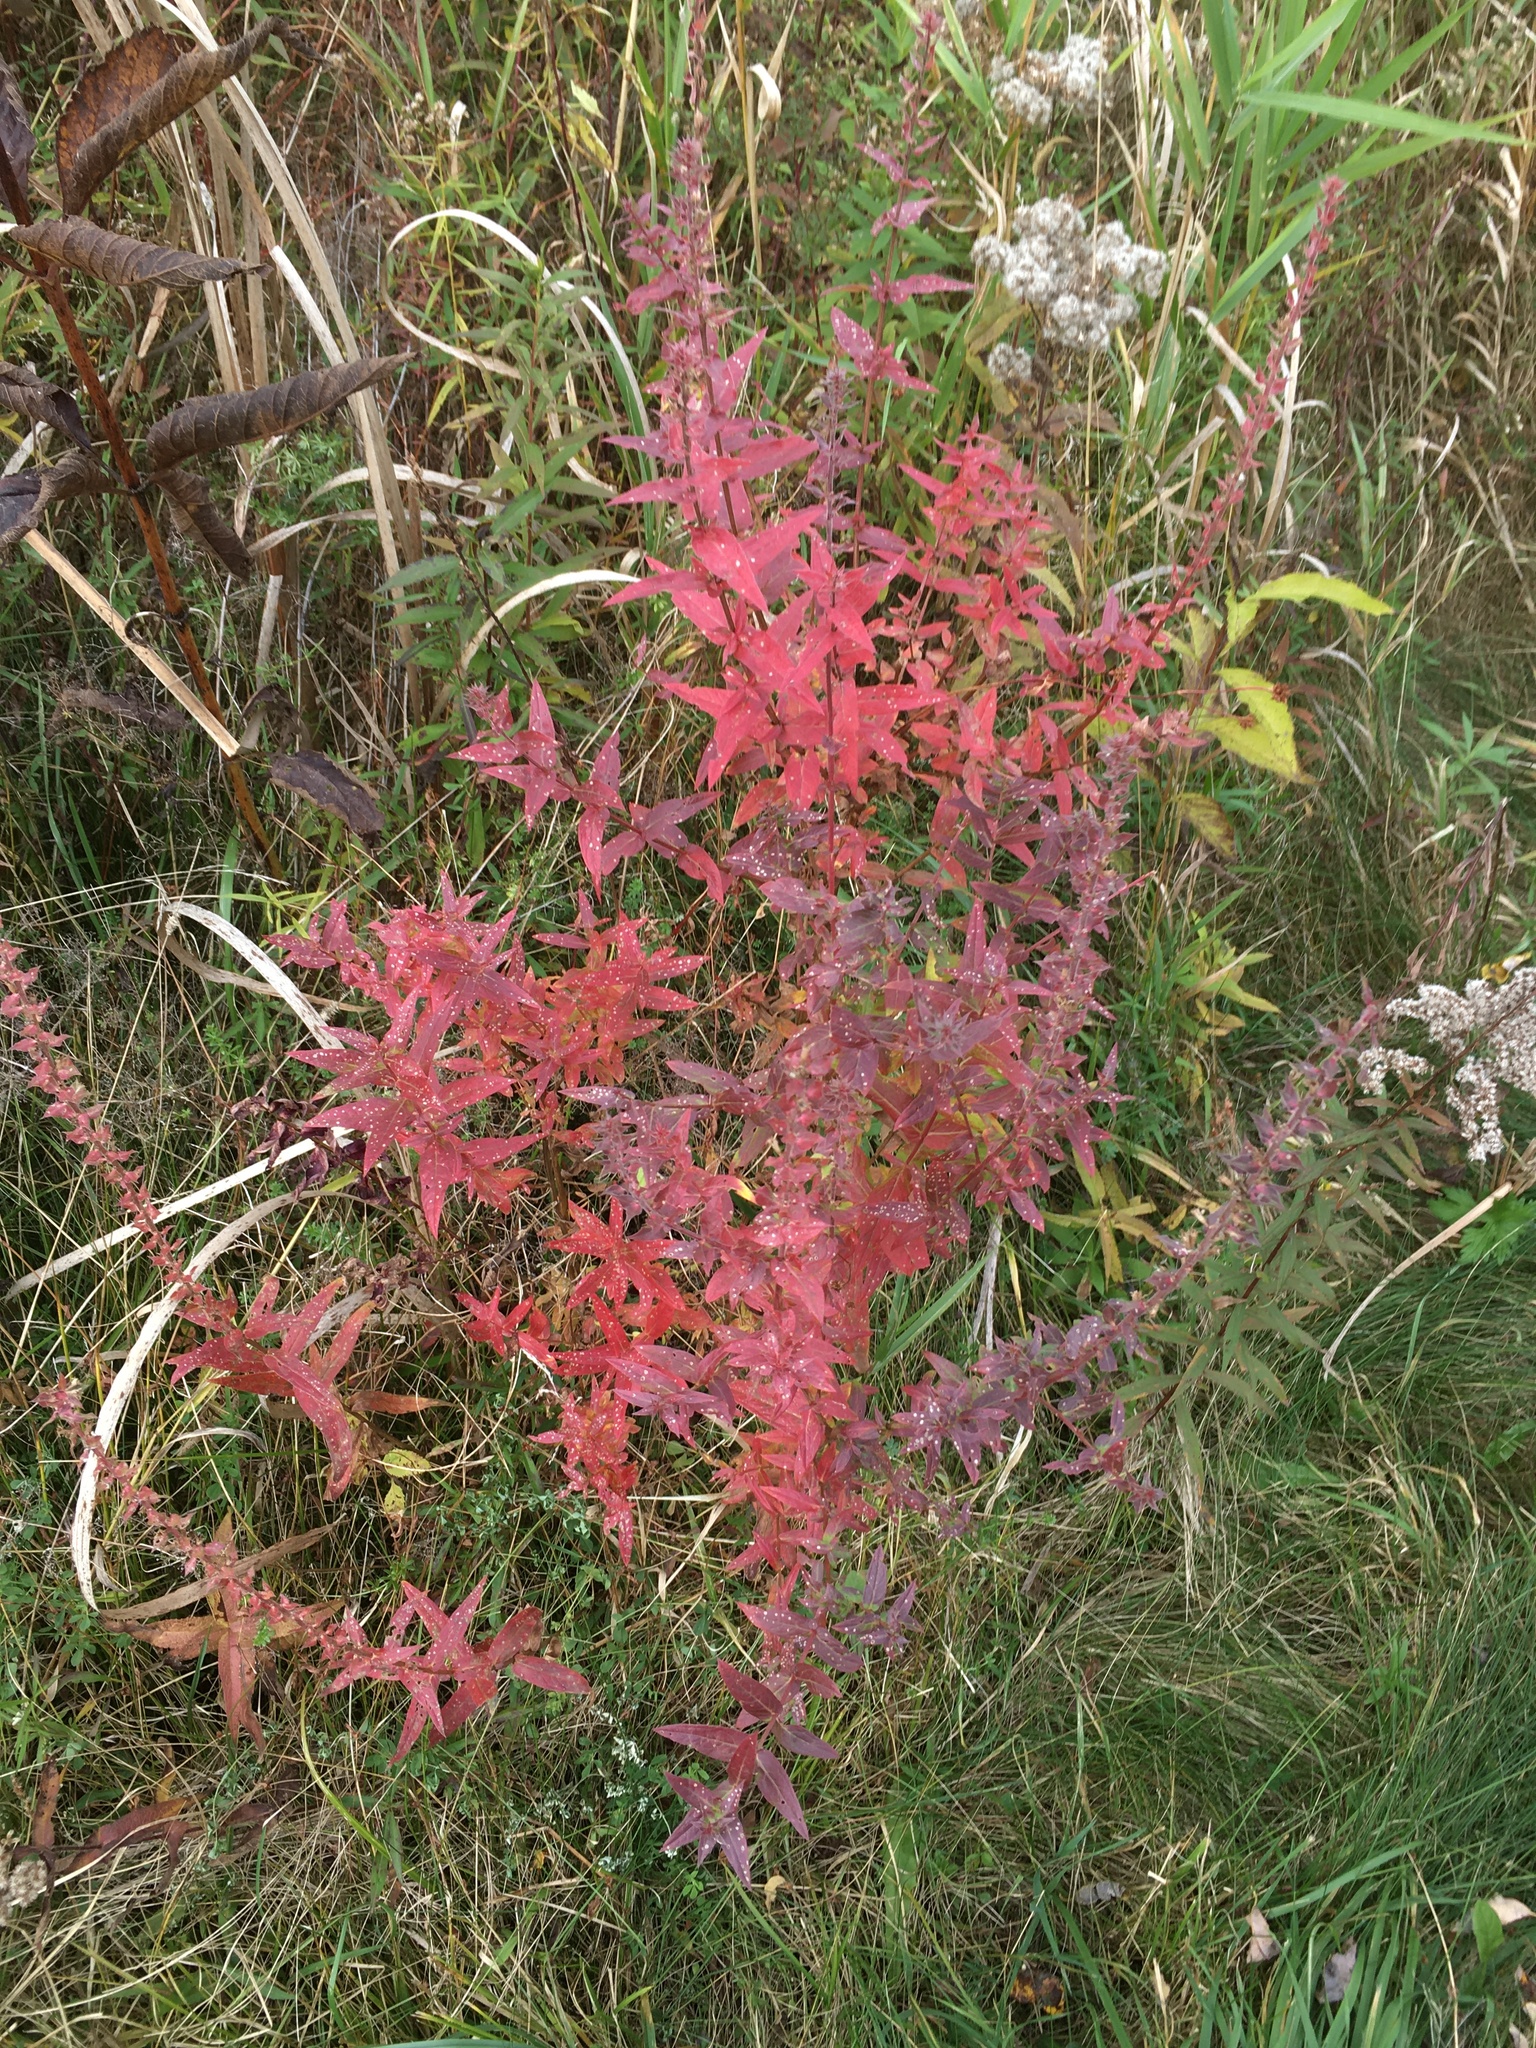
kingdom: Plantae
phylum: Tracheophyta
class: Magnoliopsida
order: Myrtales
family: Lythraceae
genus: Lythrum
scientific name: Lythrum salicaria
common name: Purple loosestrife
